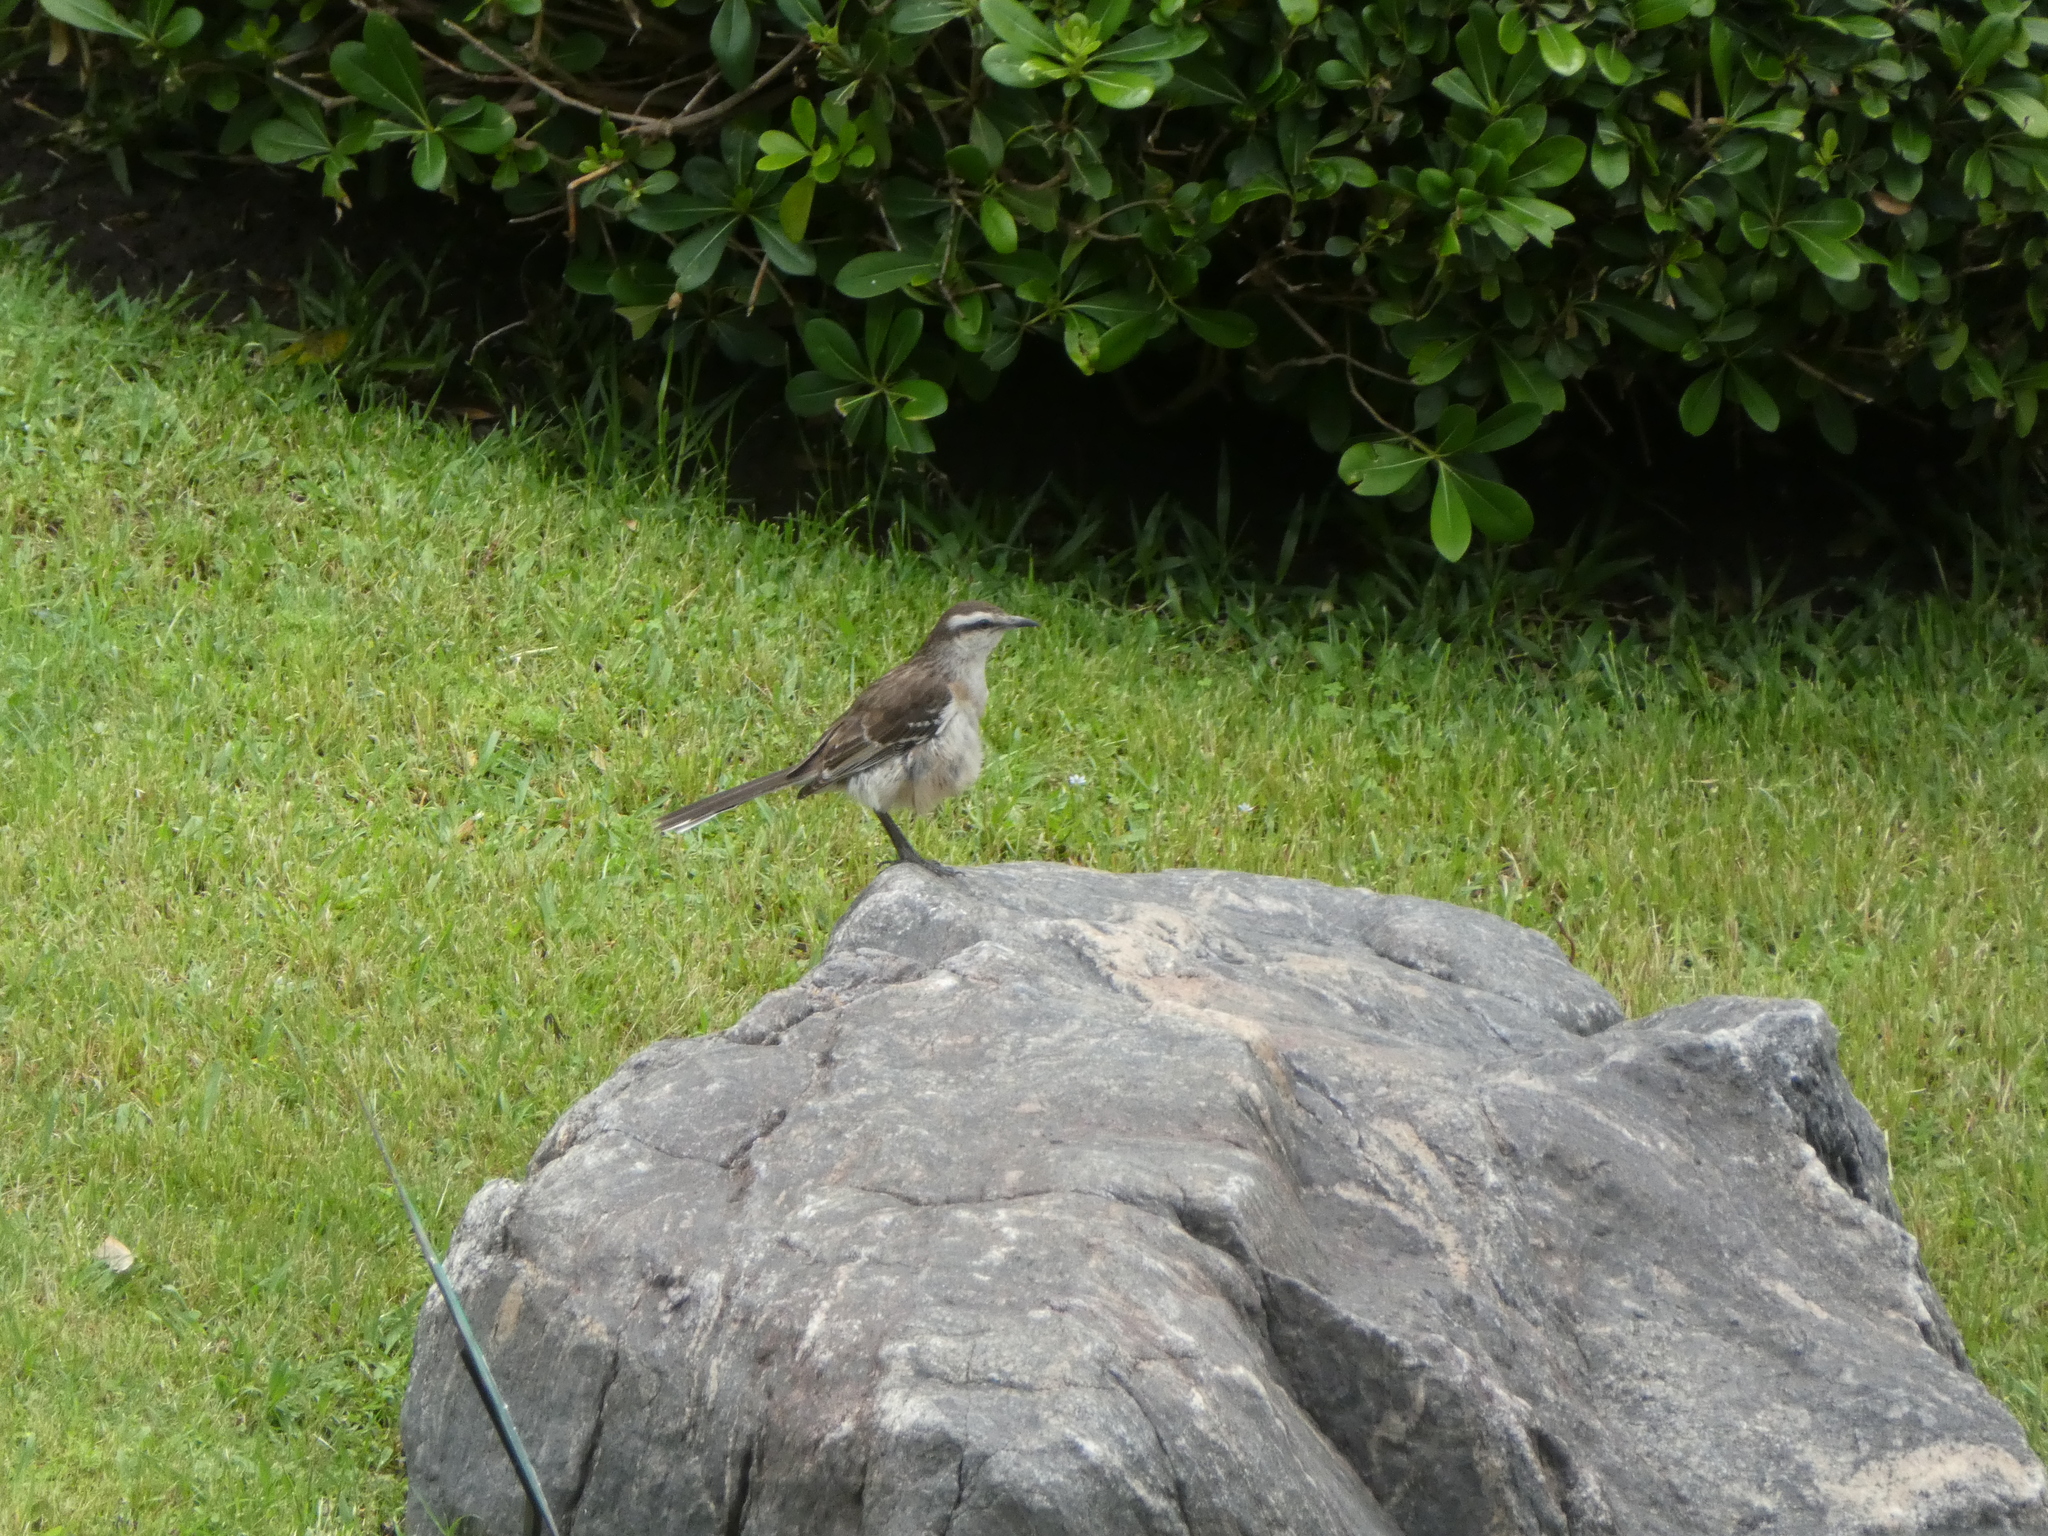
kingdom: Animalia
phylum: Chordata
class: Aves
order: Passeriformes
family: Mimidae
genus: Mimus
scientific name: Mimus saturninus
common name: Chalk-browed mockingbird
